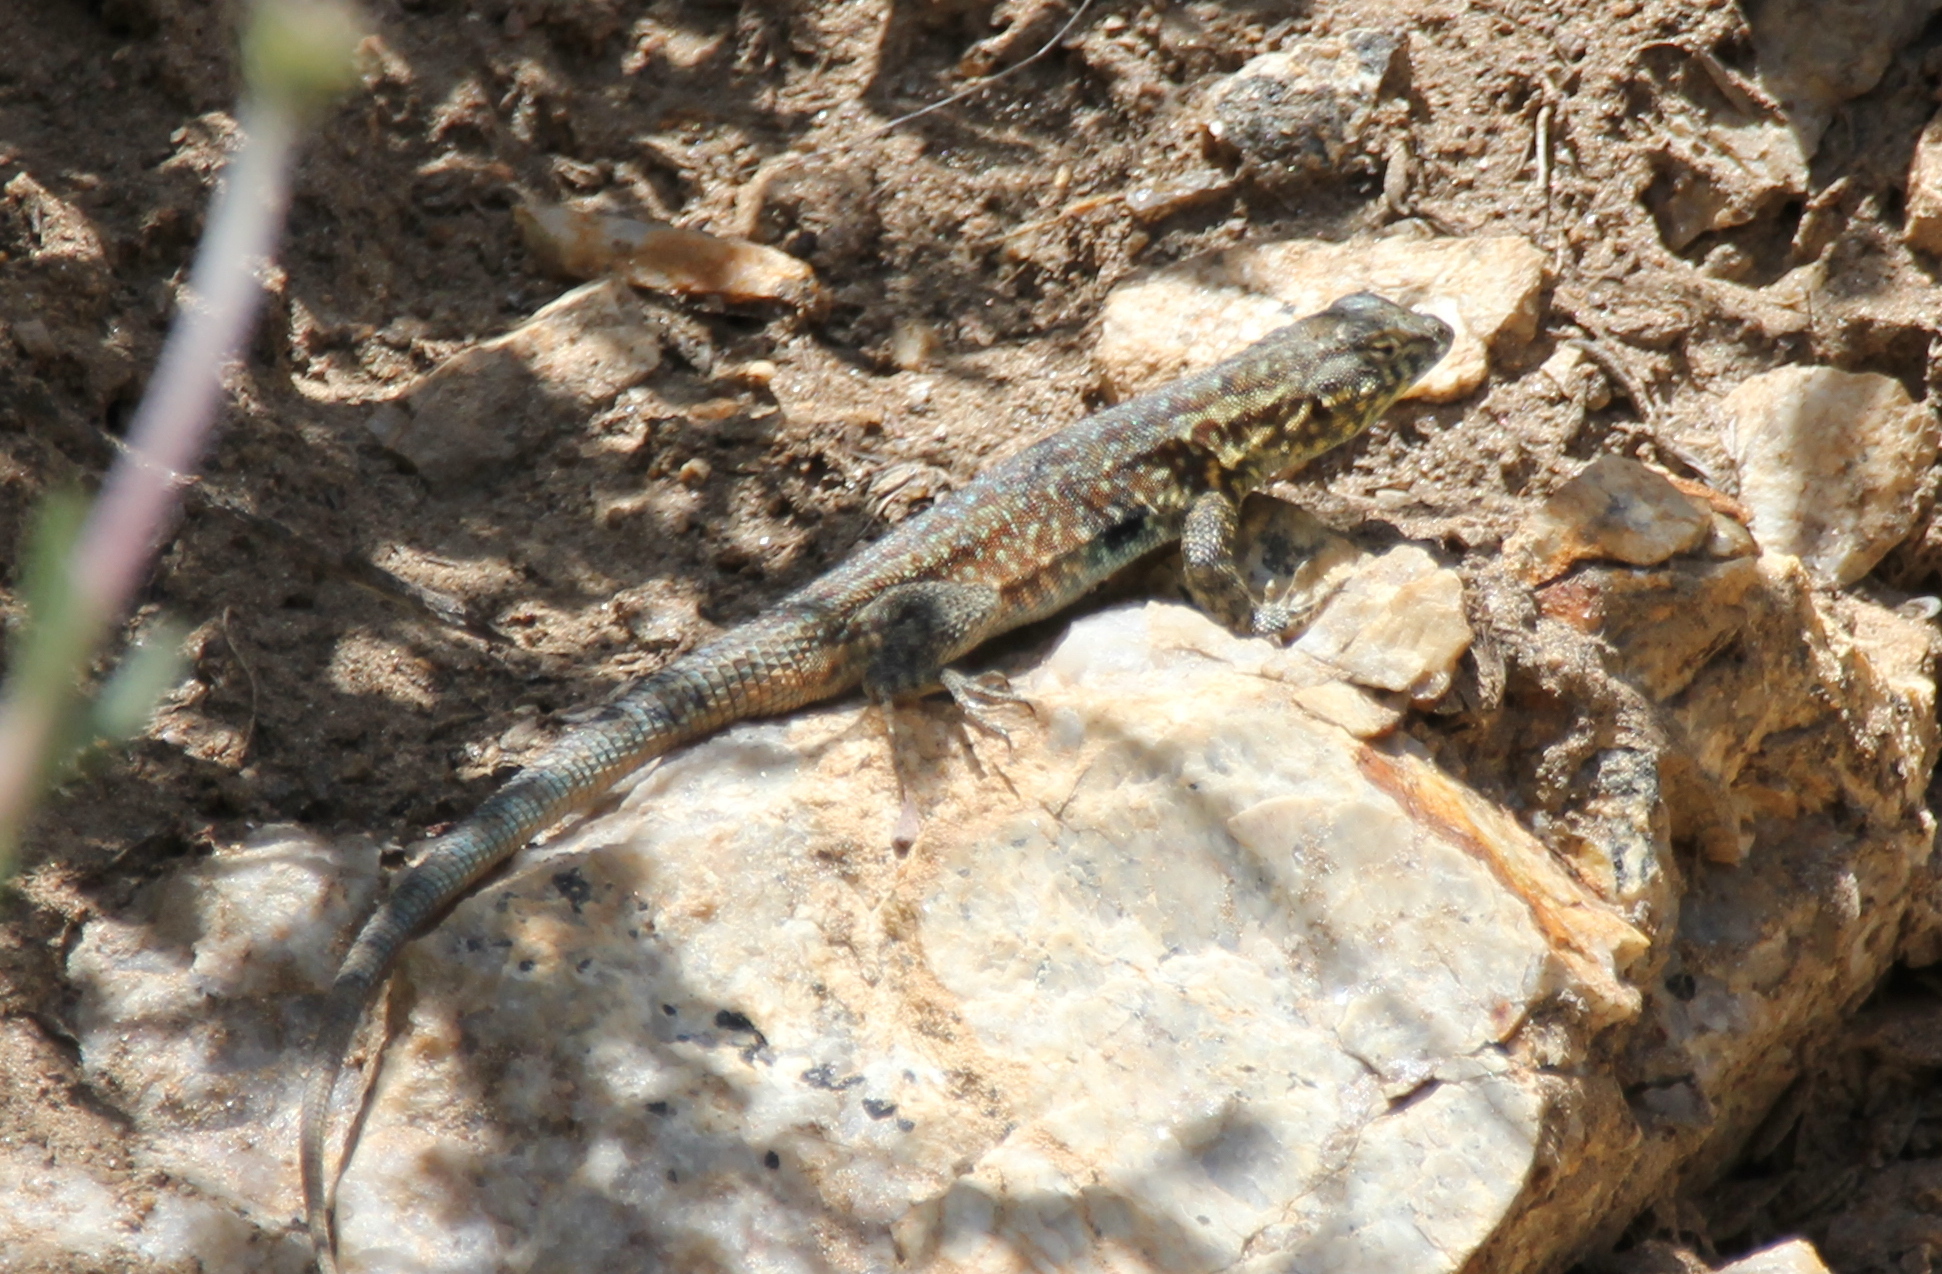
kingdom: Animalia
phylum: Chordata
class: Squamata
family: Phrynosomatidae
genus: Uta
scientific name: Uta stansburiana
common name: Side-blotched lizard
